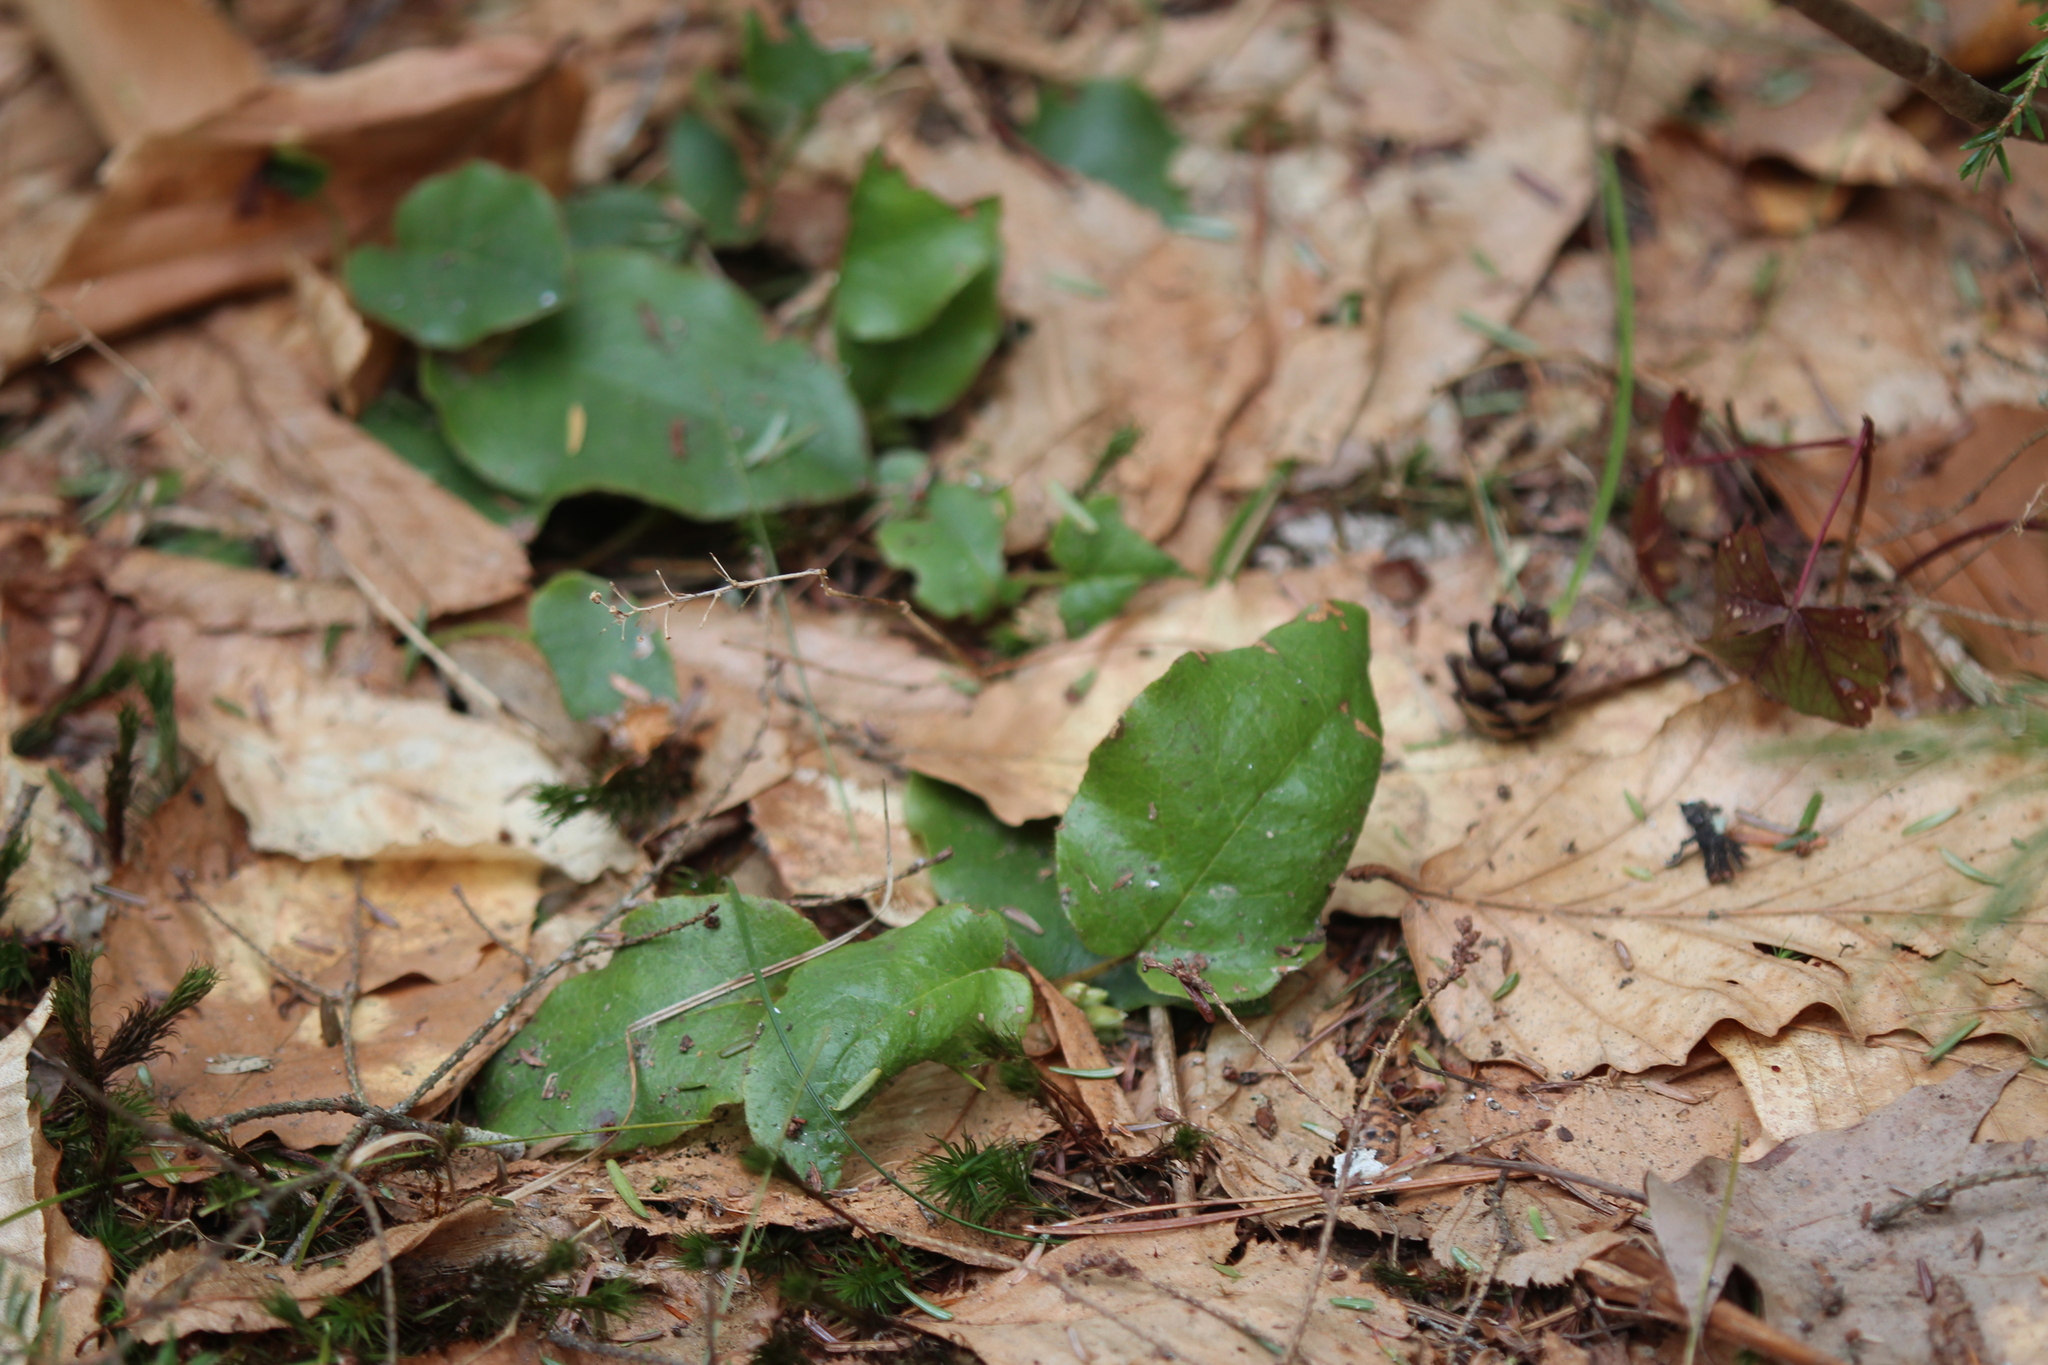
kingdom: Plantae
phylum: Tracheophyta
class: Magnoliopsida
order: Ericales
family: Ericaceae
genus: Epigaea
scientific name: Epigaea repens
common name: Gravelroot
